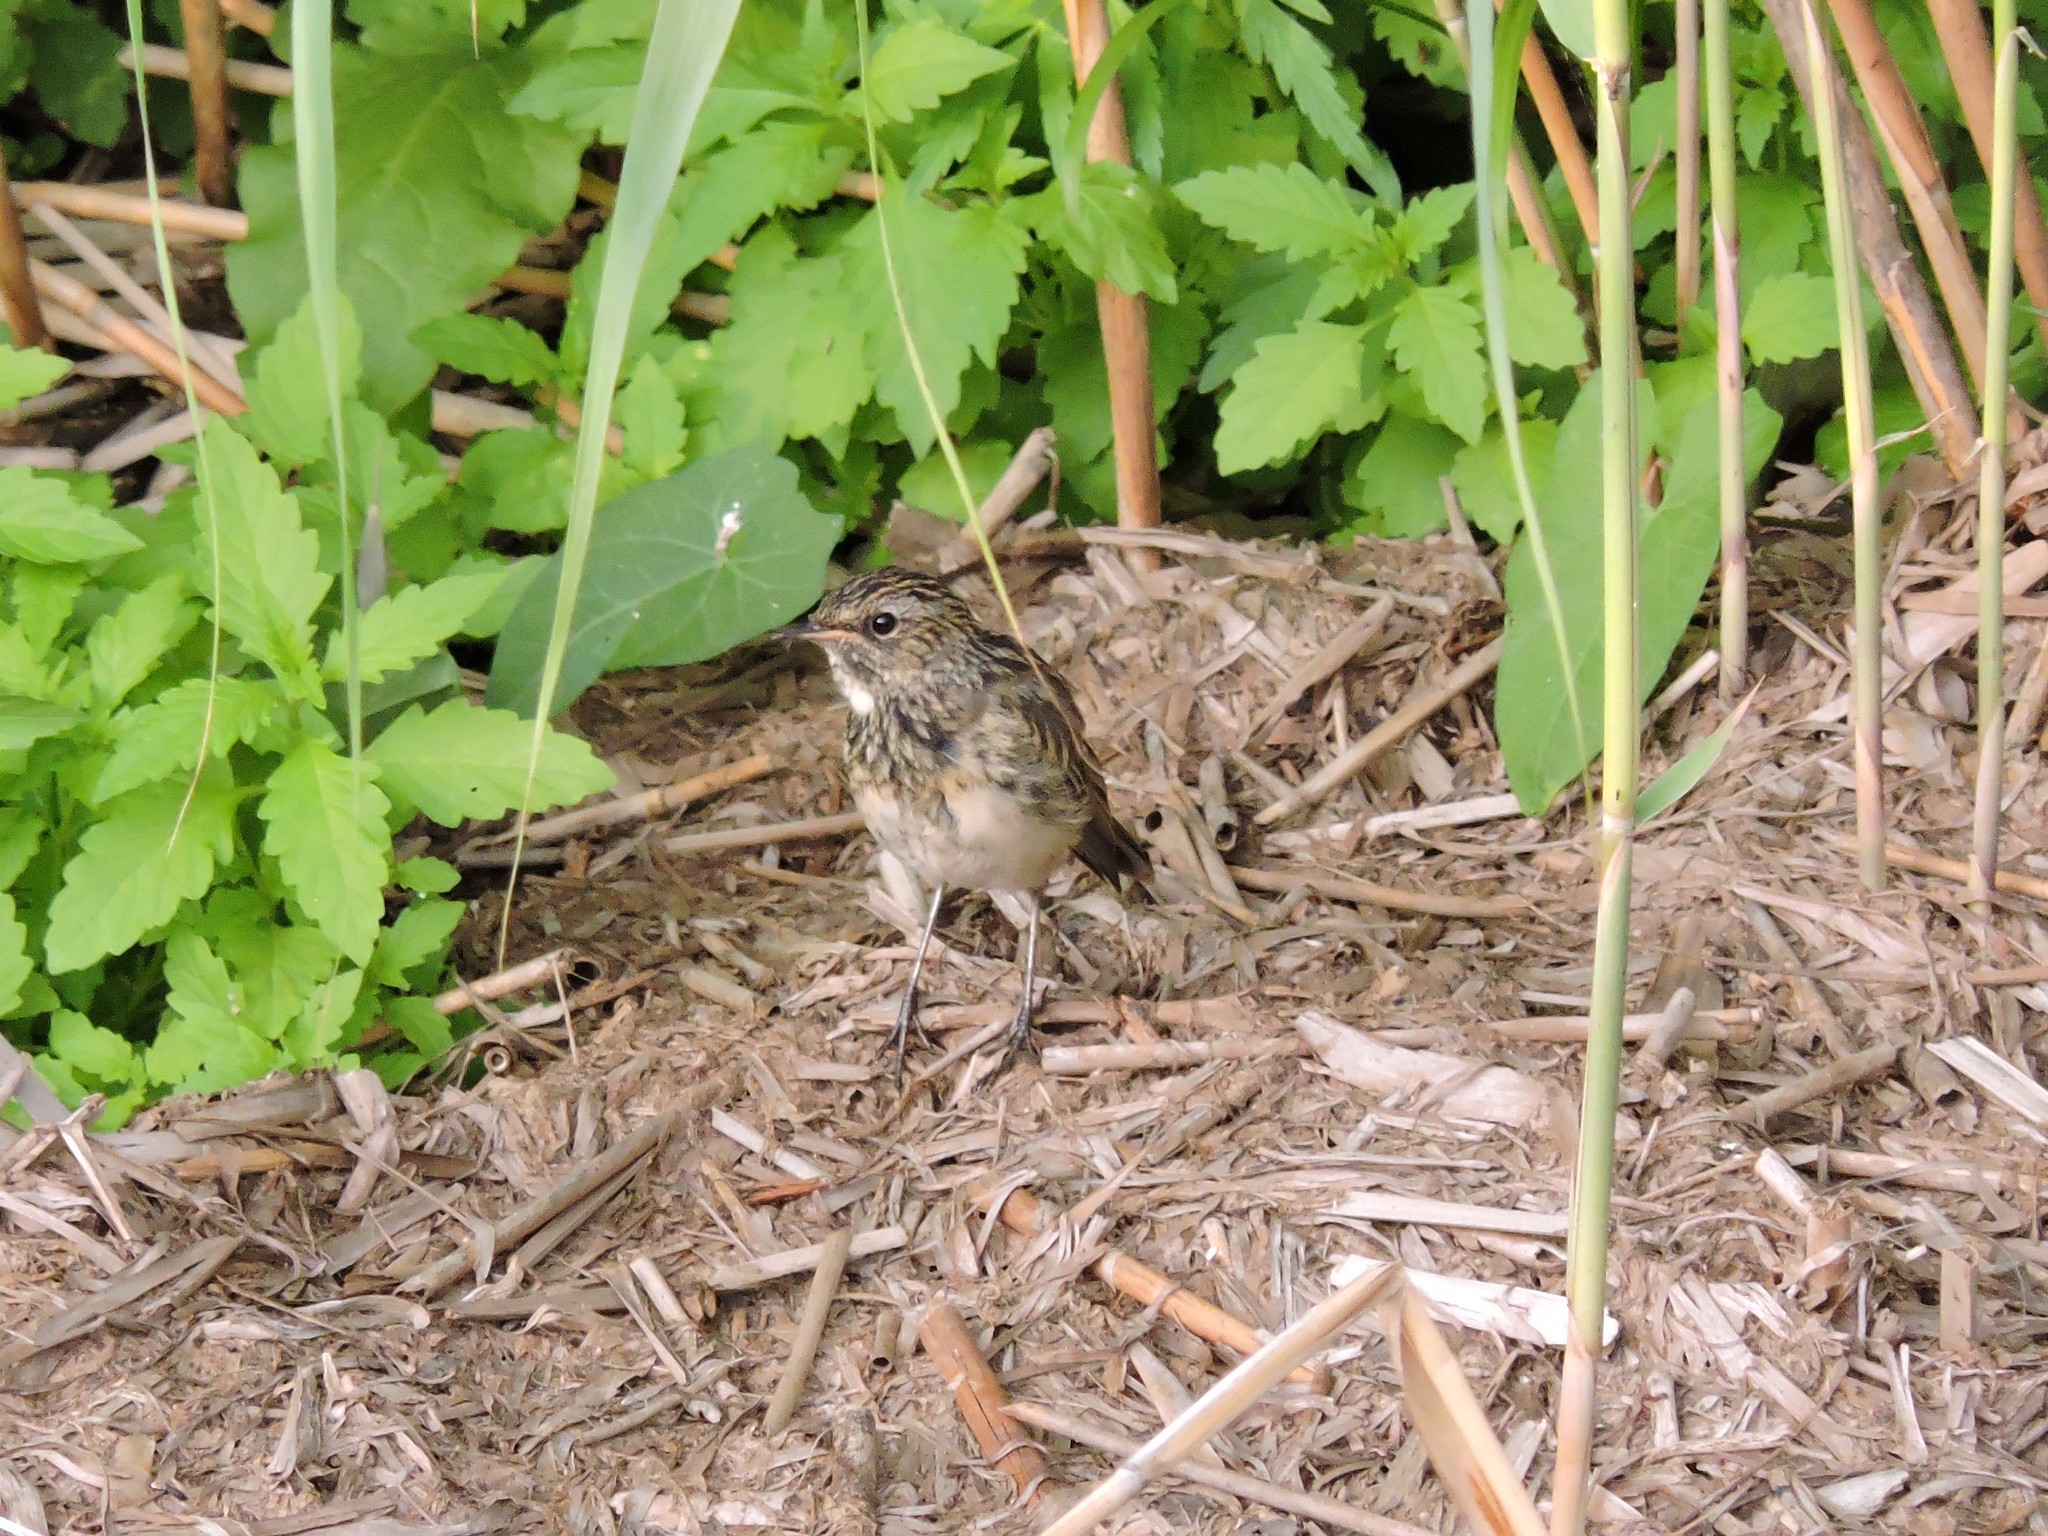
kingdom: Animalia
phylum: Chordata
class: Aves
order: Passeriformes
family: Muscicapidae
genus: Luscinia
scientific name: Luscinia svecica
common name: Bluethroat
